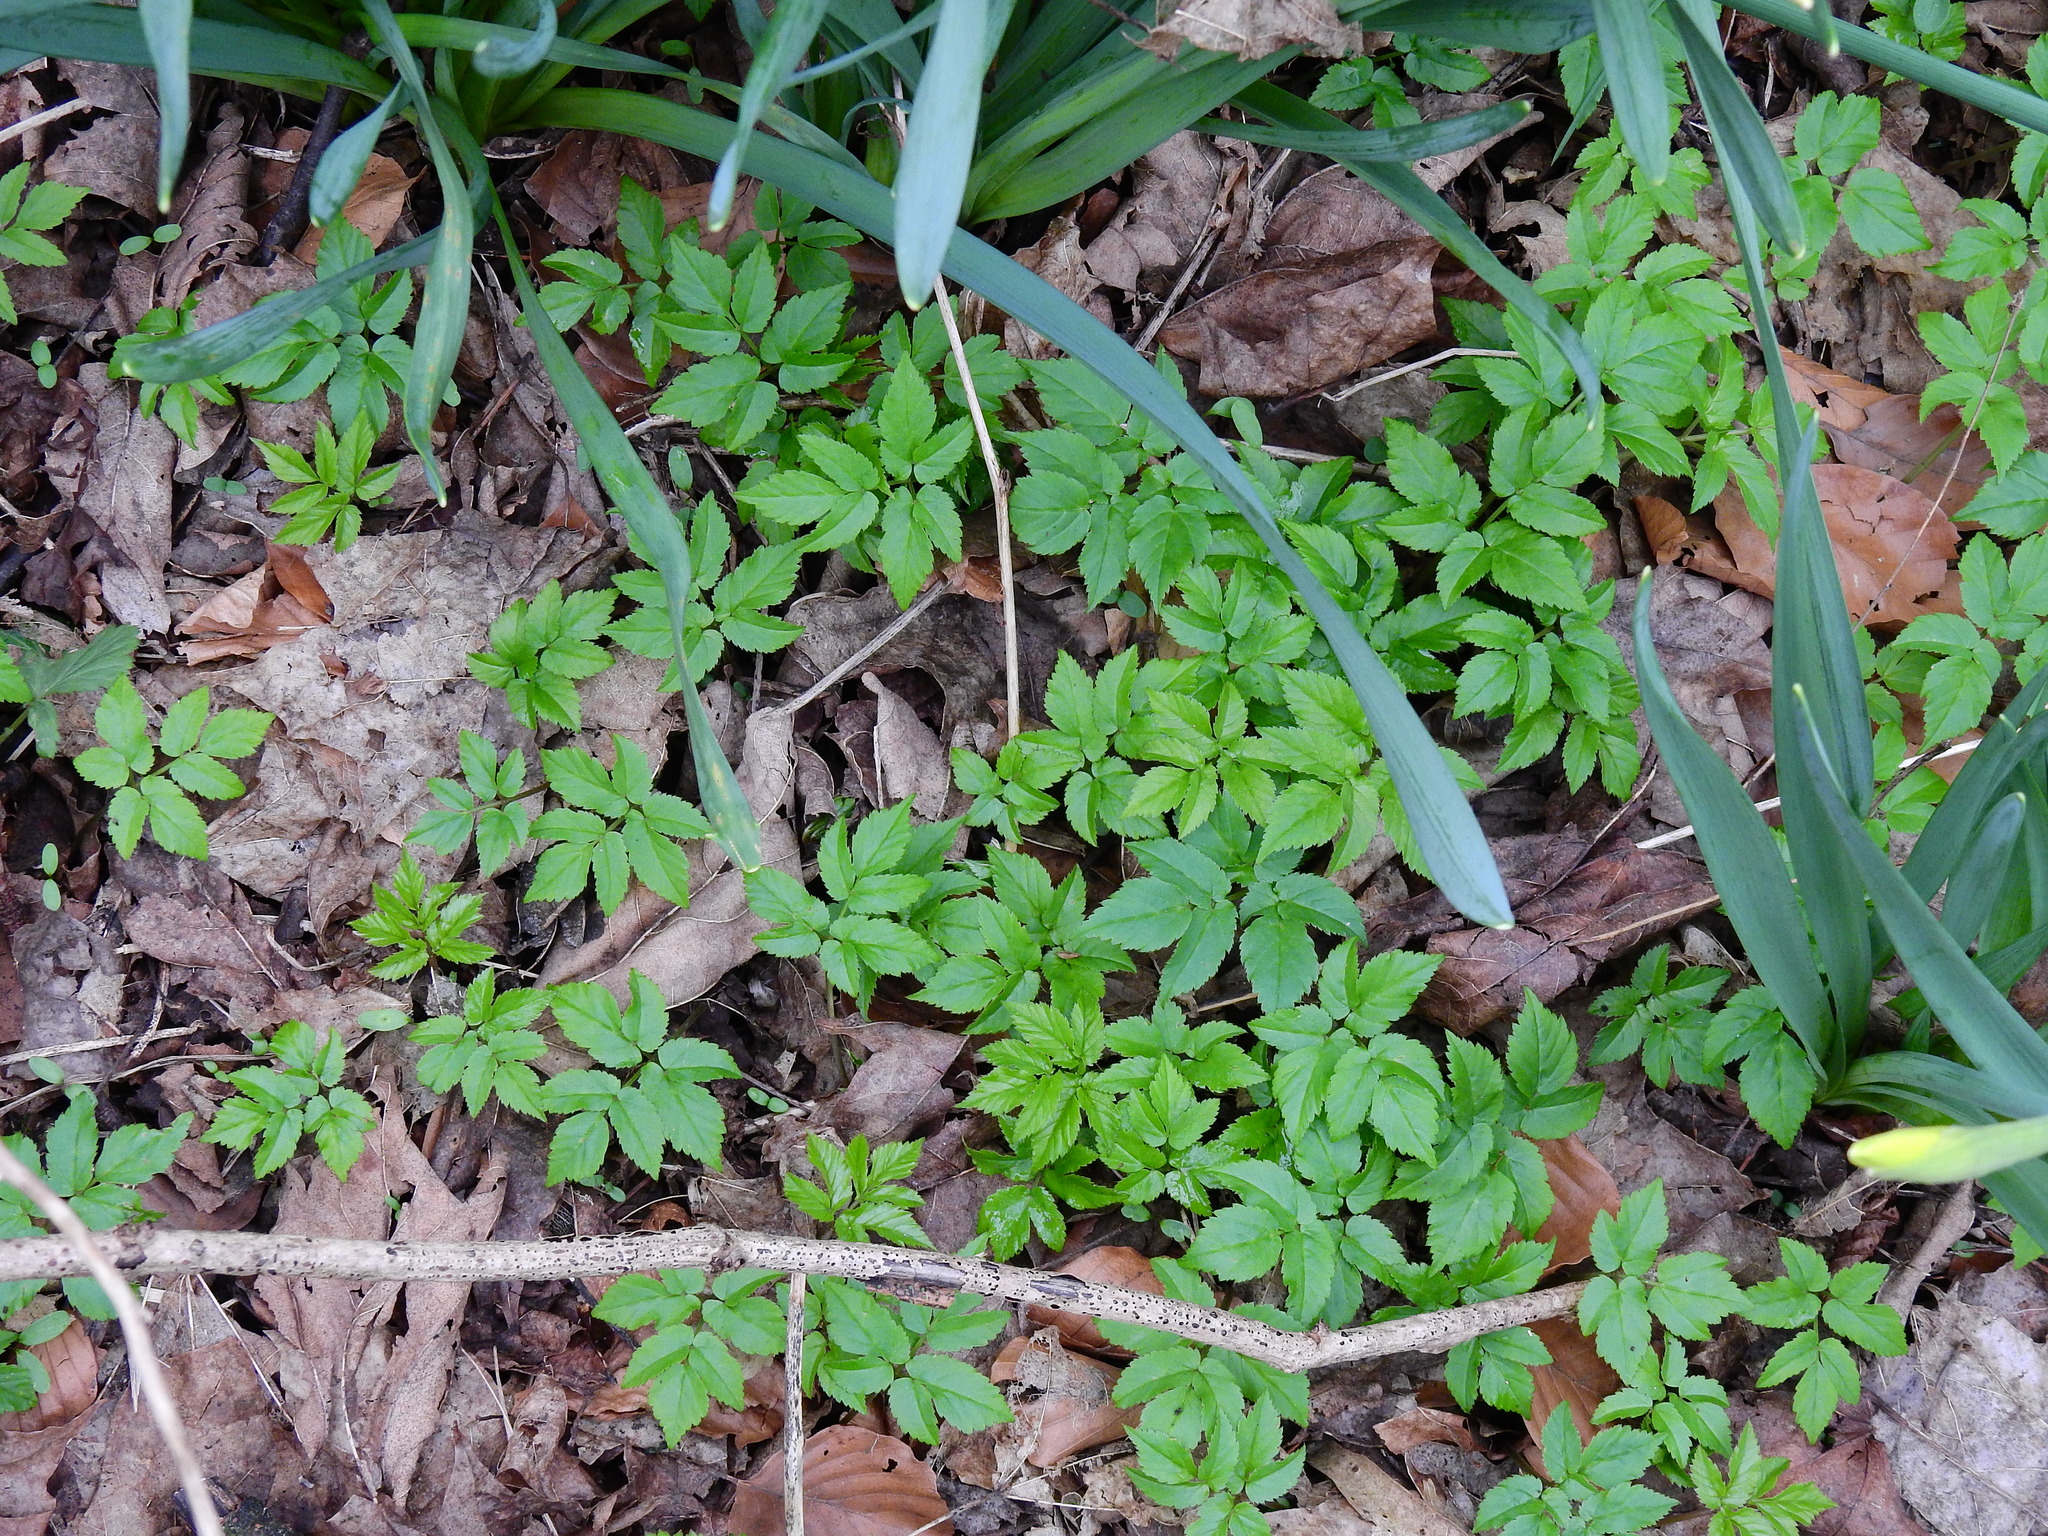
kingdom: Plantae
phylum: Tracheophyta
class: Magnoliopsida
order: Apiales
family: Apiaceae
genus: Aegopodium
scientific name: Aegopodium podagraria
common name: Ground-elder
